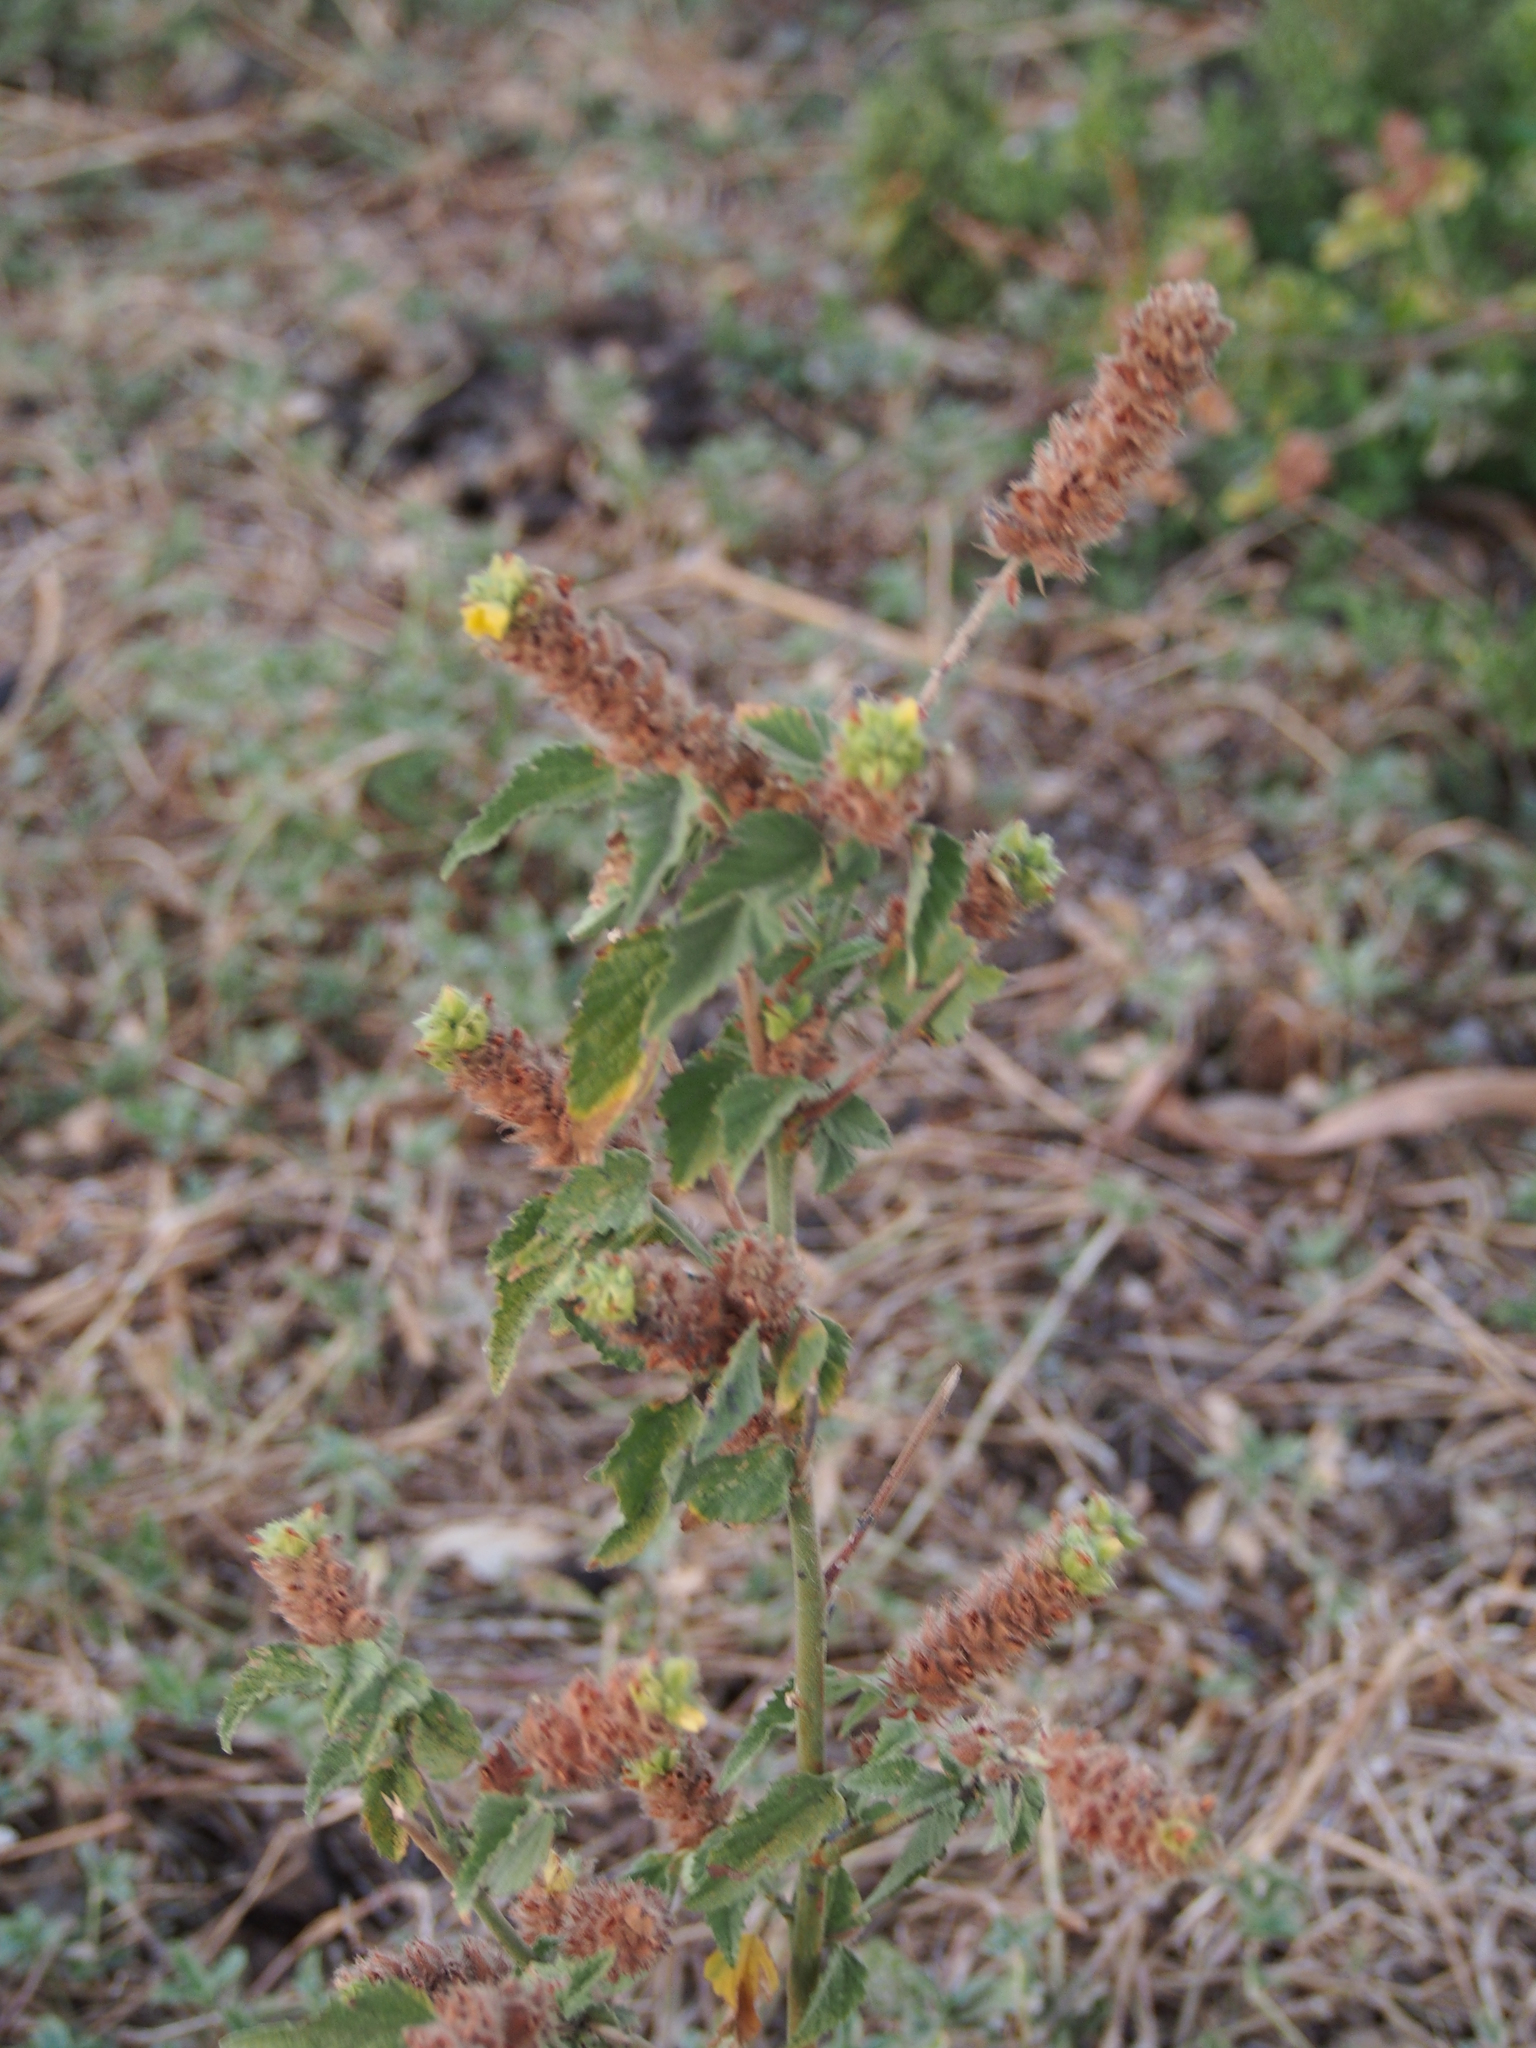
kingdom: Plantae
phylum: Tracheophyta
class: Magnoliopsida
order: Malvales
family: Malvaceae
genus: Waltheria
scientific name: Waltheria indica
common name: Leather-coat
